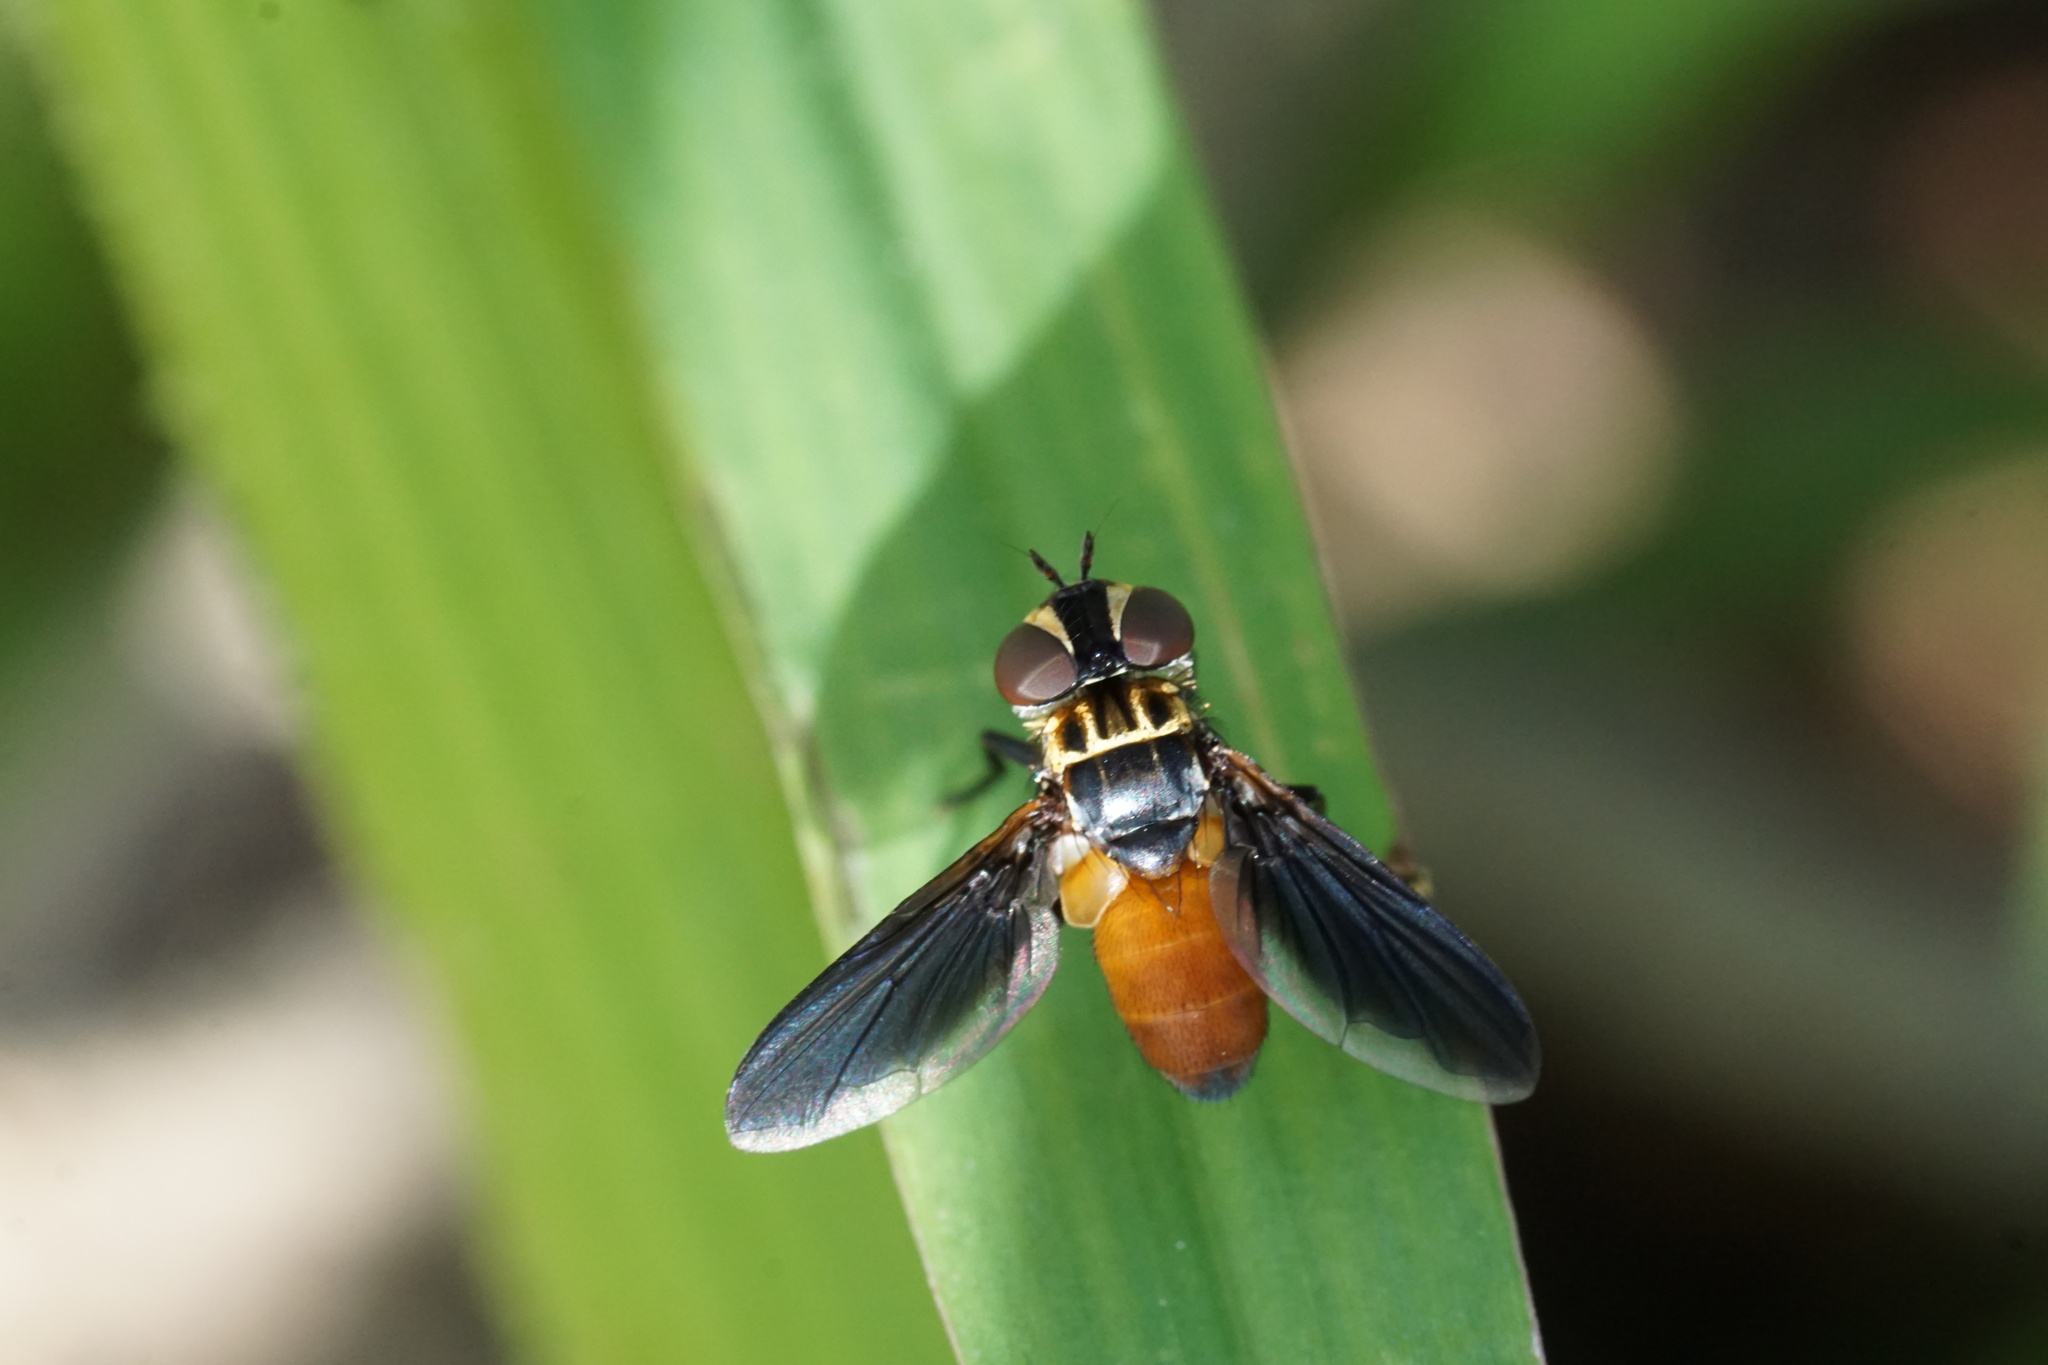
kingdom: Animalia
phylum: Arthropoda
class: Insecta
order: Diptera
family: Tachinidae
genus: Trichopoda
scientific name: Trichopoda pennipes
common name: Tachinid fly
